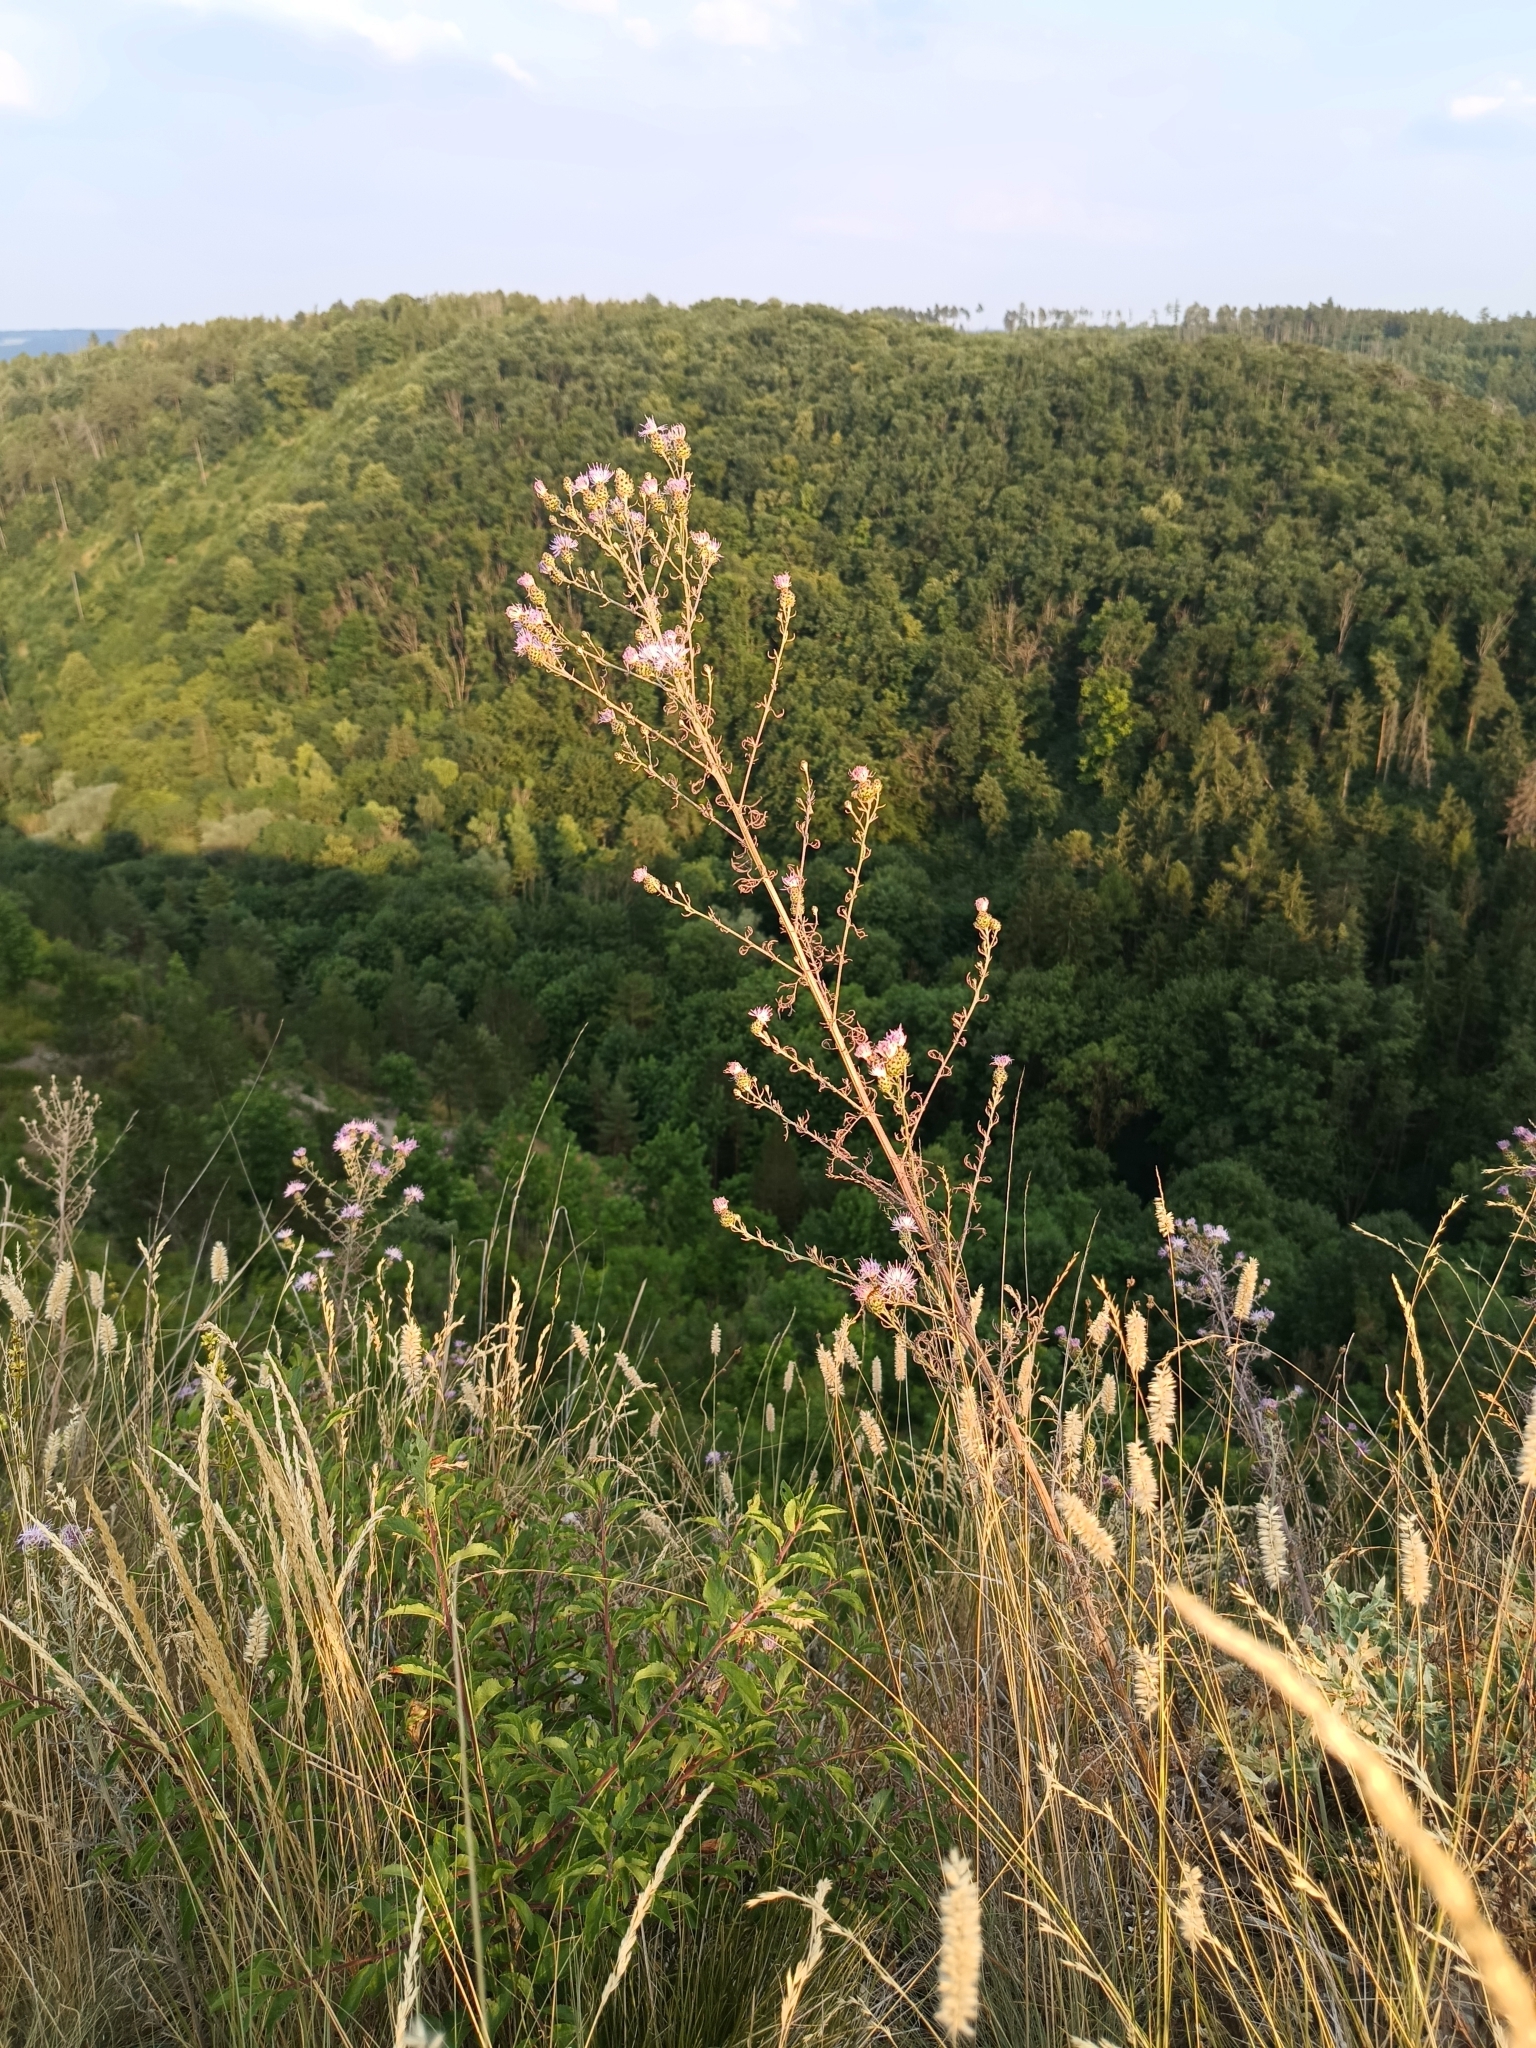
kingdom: Plantae
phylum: Tracheophyta
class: Magnoliopsida
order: Asterales
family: Asteraceae
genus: Centaurea
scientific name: Centaurea stoebe
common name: Spotted knapweed
